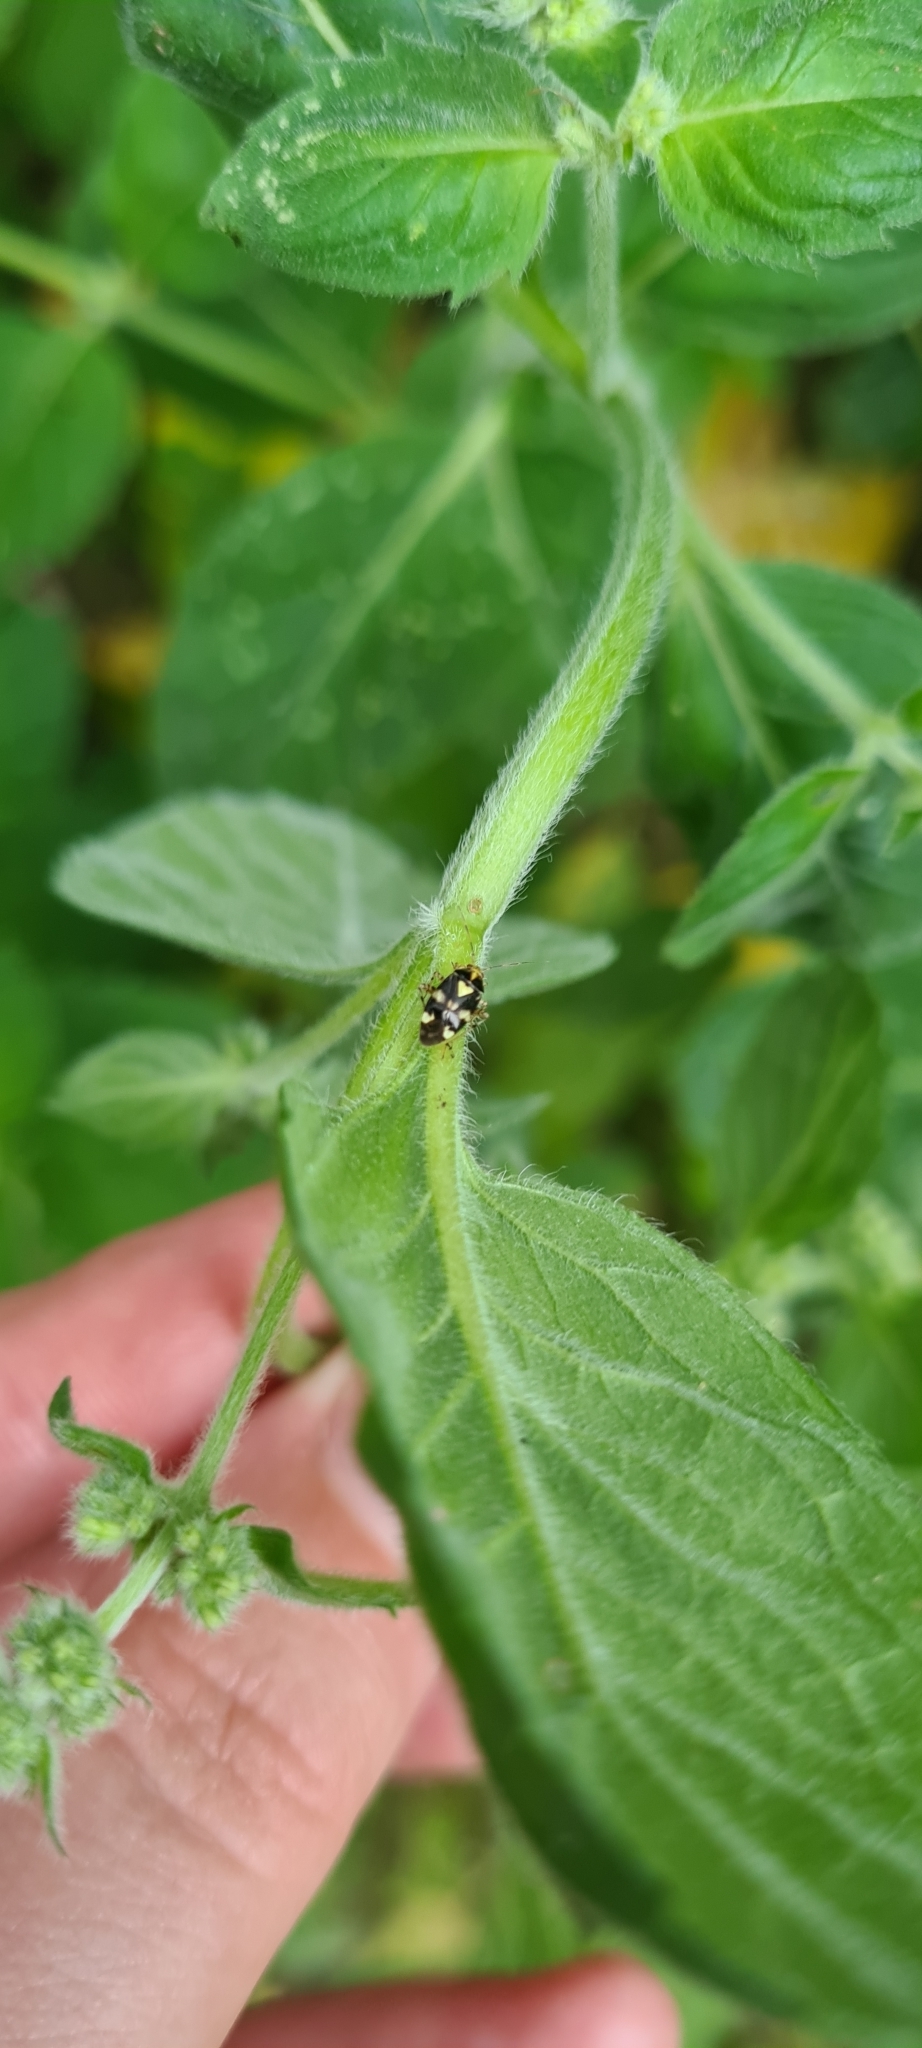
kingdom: Animalia
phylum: Arthropoda
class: Insecta
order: Hemiptera
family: Miridae
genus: Liocoris
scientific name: Liocoris tripustulatus
